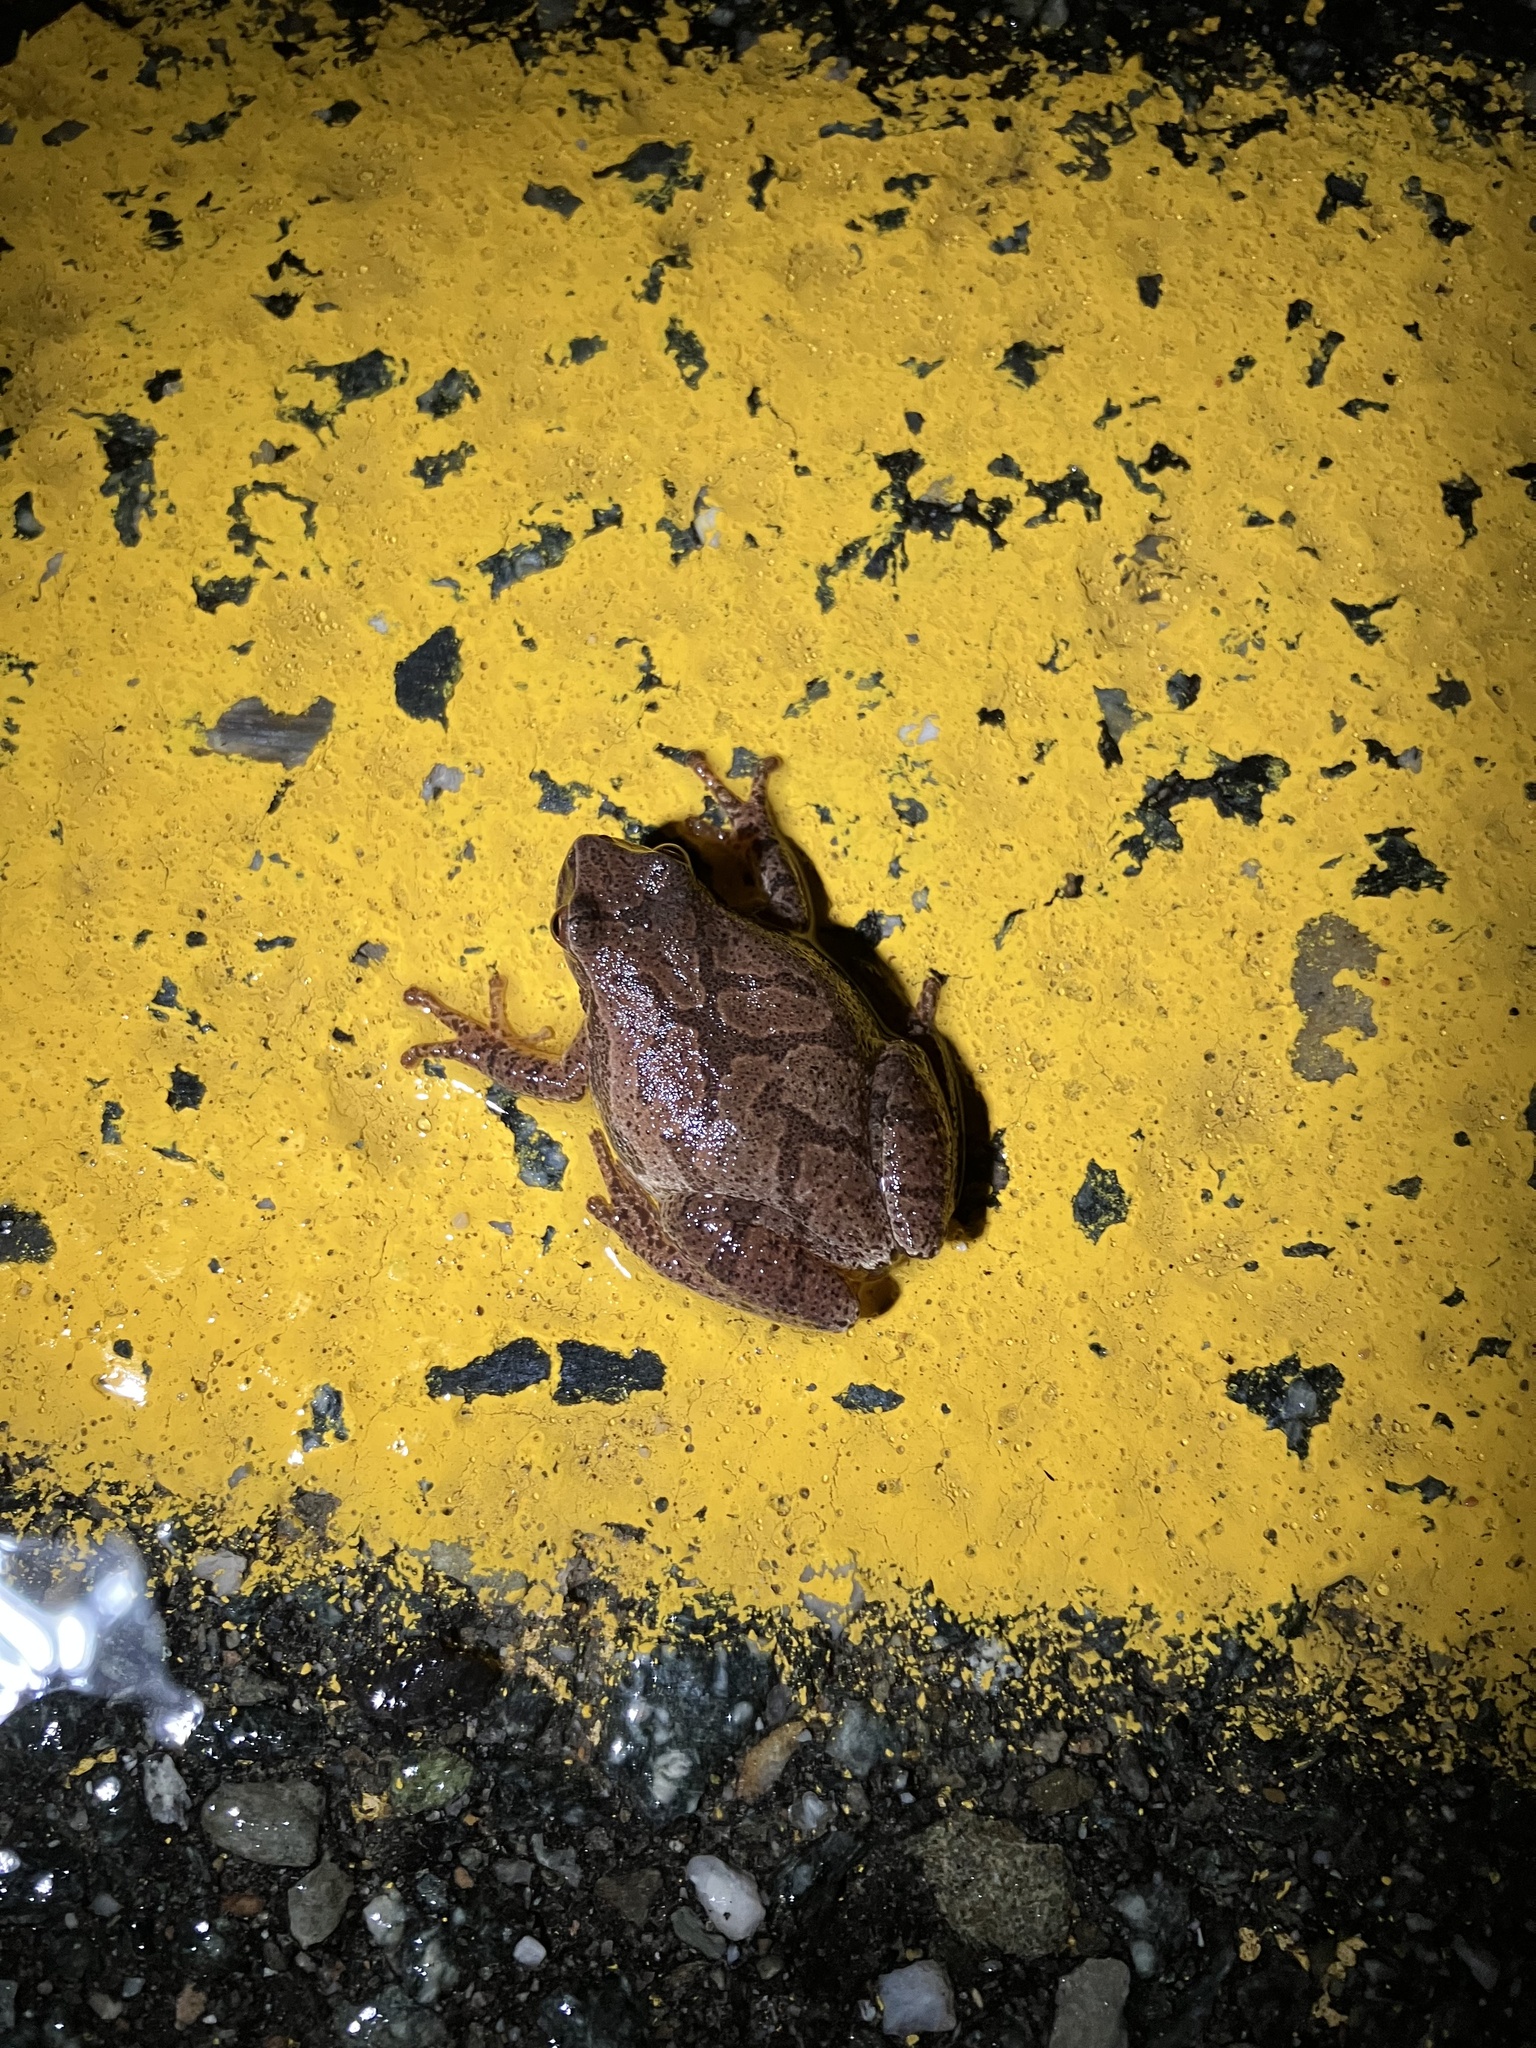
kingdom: Animalia
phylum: Chordata
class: Amphibia
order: Anura
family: Hylidae
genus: Pseudacris
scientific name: Pseudacris crucifer
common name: Spring peeper
